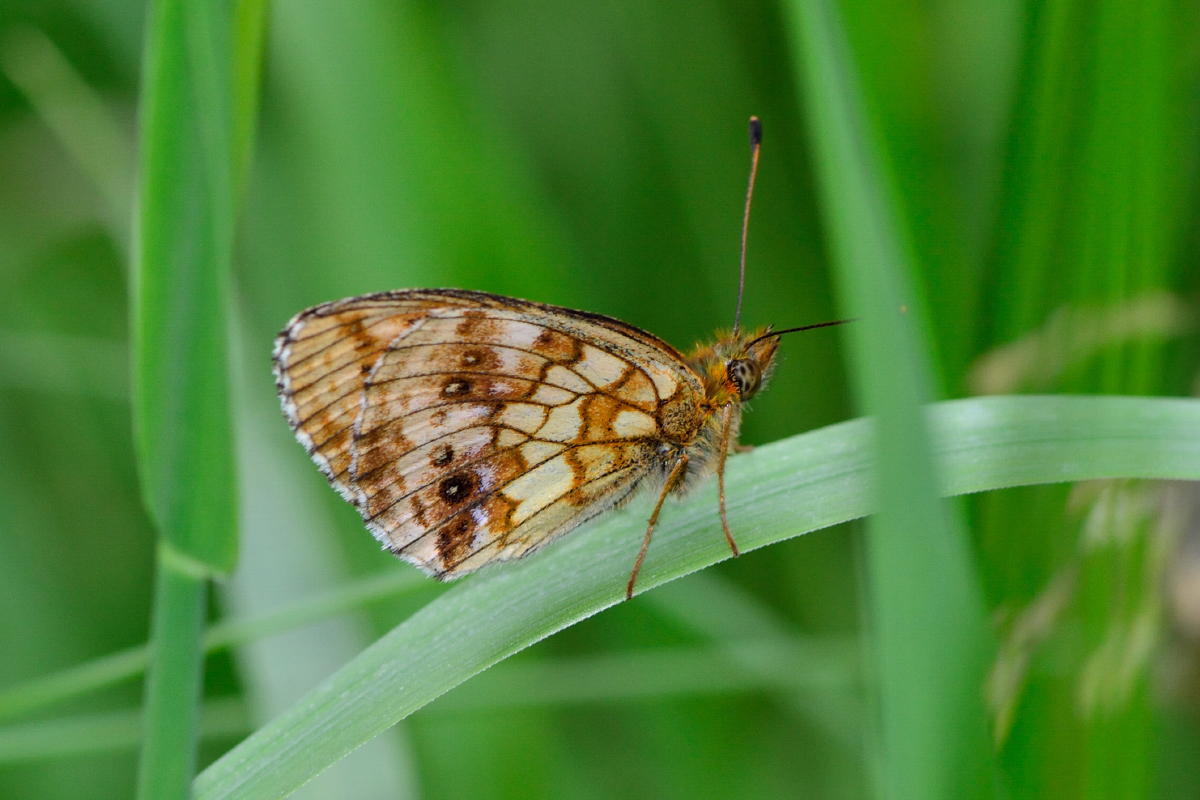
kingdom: Animalia
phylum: Arthropoda
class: Insecta
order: Lepidoptera
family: Nymphalidae
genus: Brenthis
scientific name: Brenthis ino
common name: Lesser marbled fritillary
